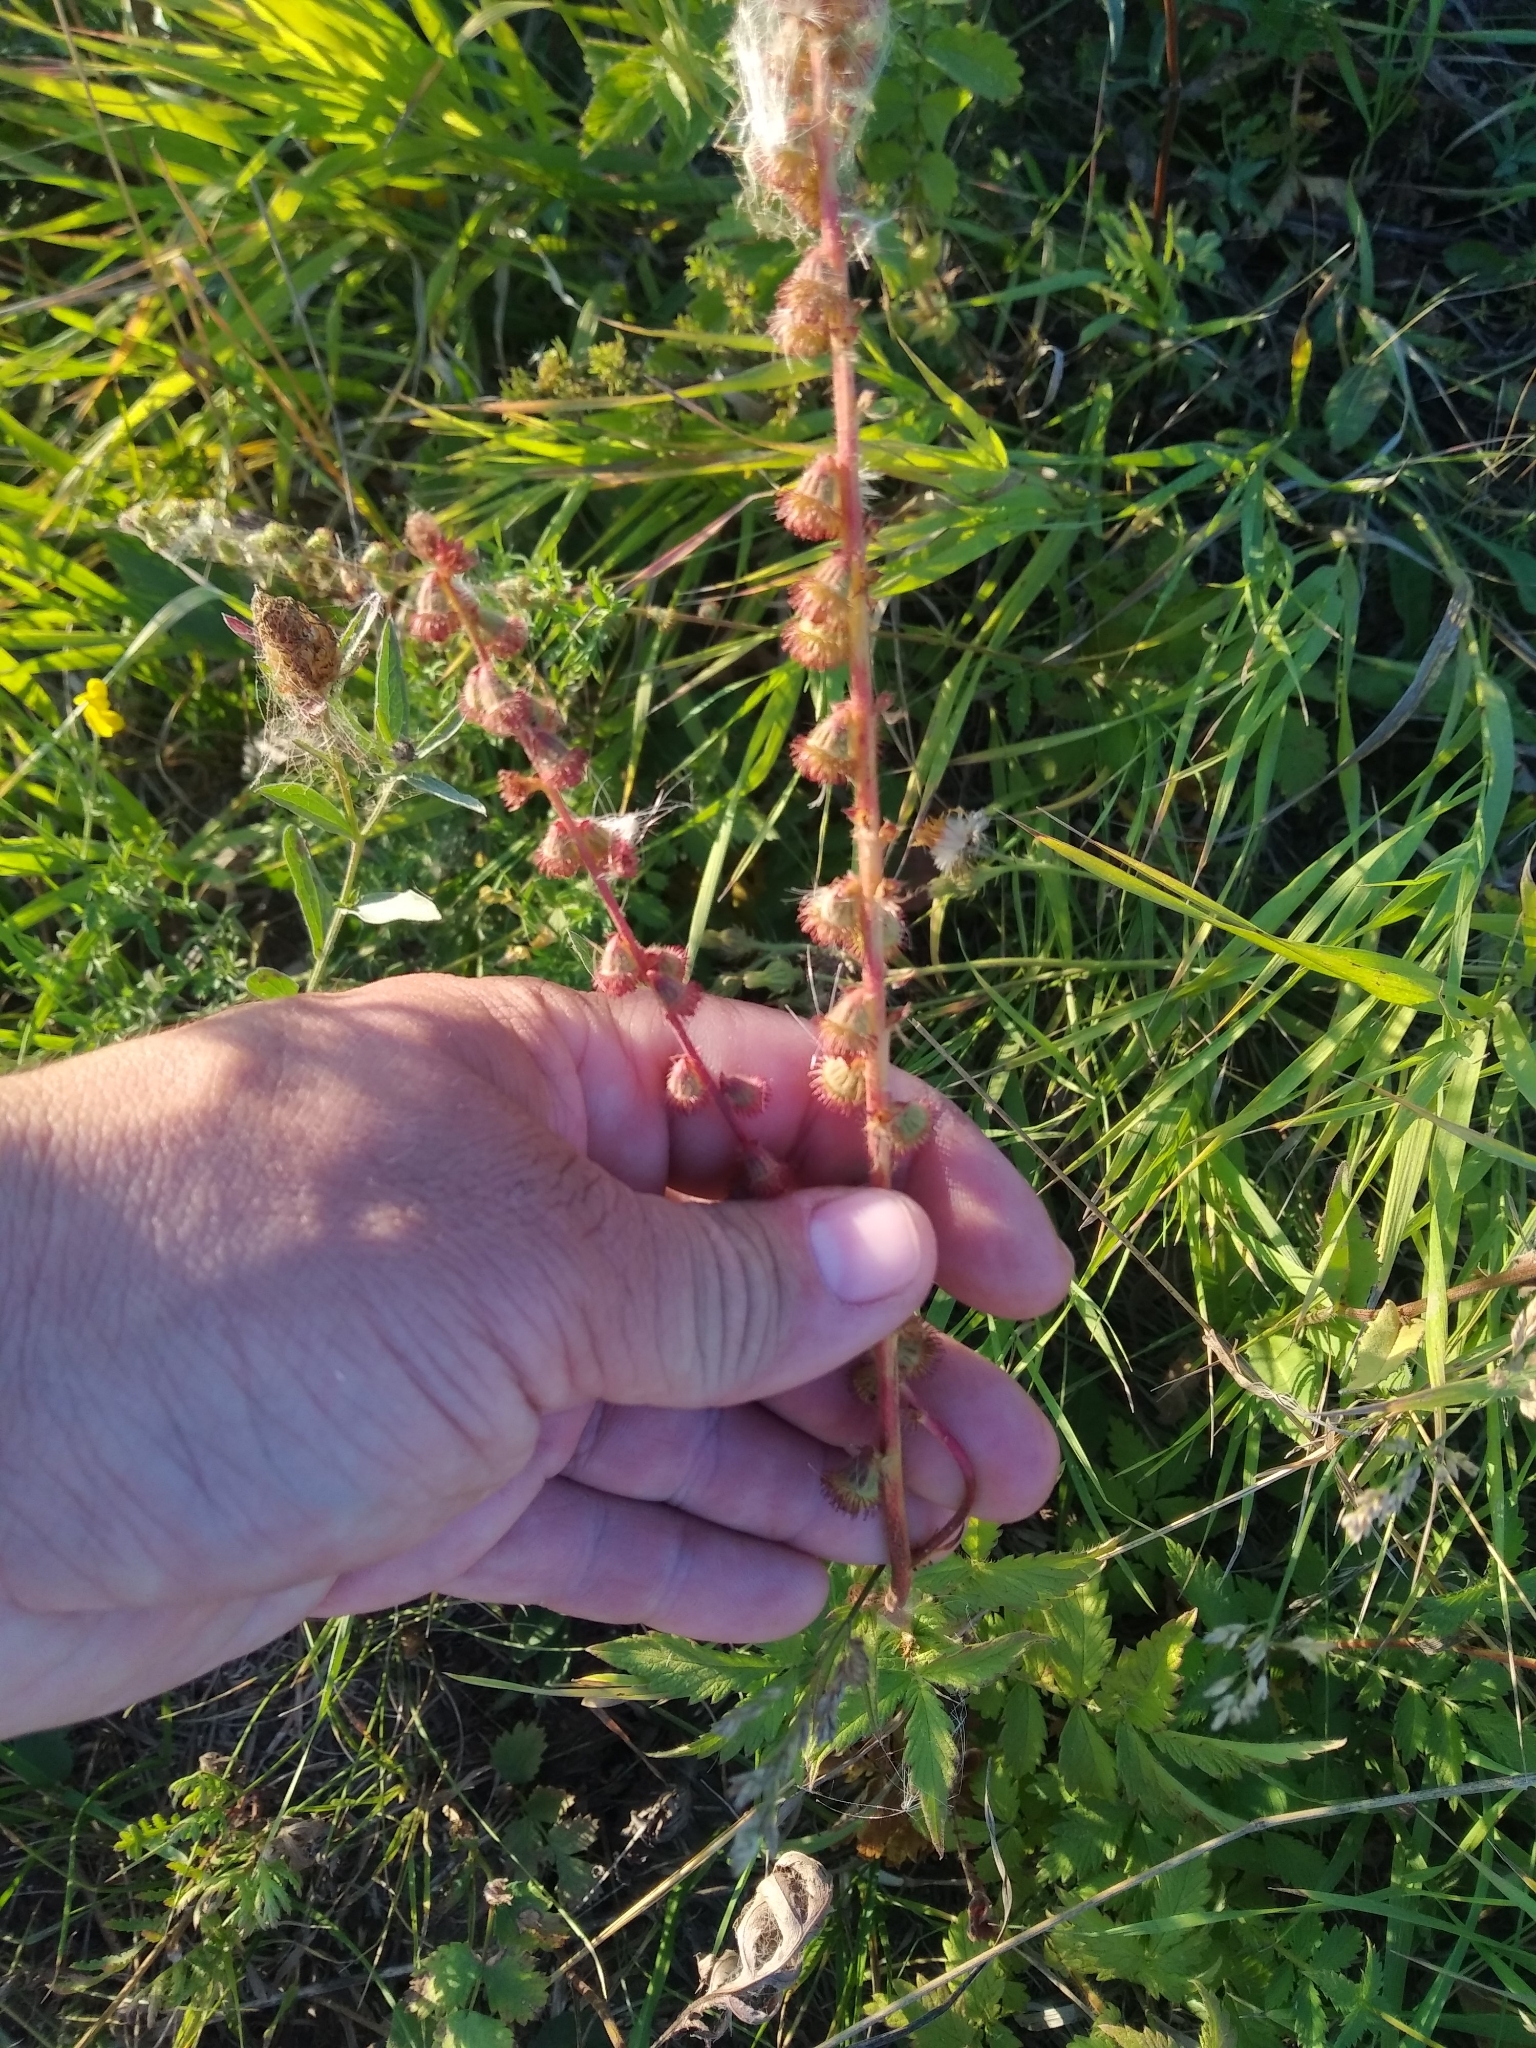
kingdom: Plantae
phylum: Tracheophyta
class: Magnoliopsida
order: Rosales
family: Rosaceae
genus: Agrimonia
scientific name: Agrimonia eupatoria
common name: Agrimony
